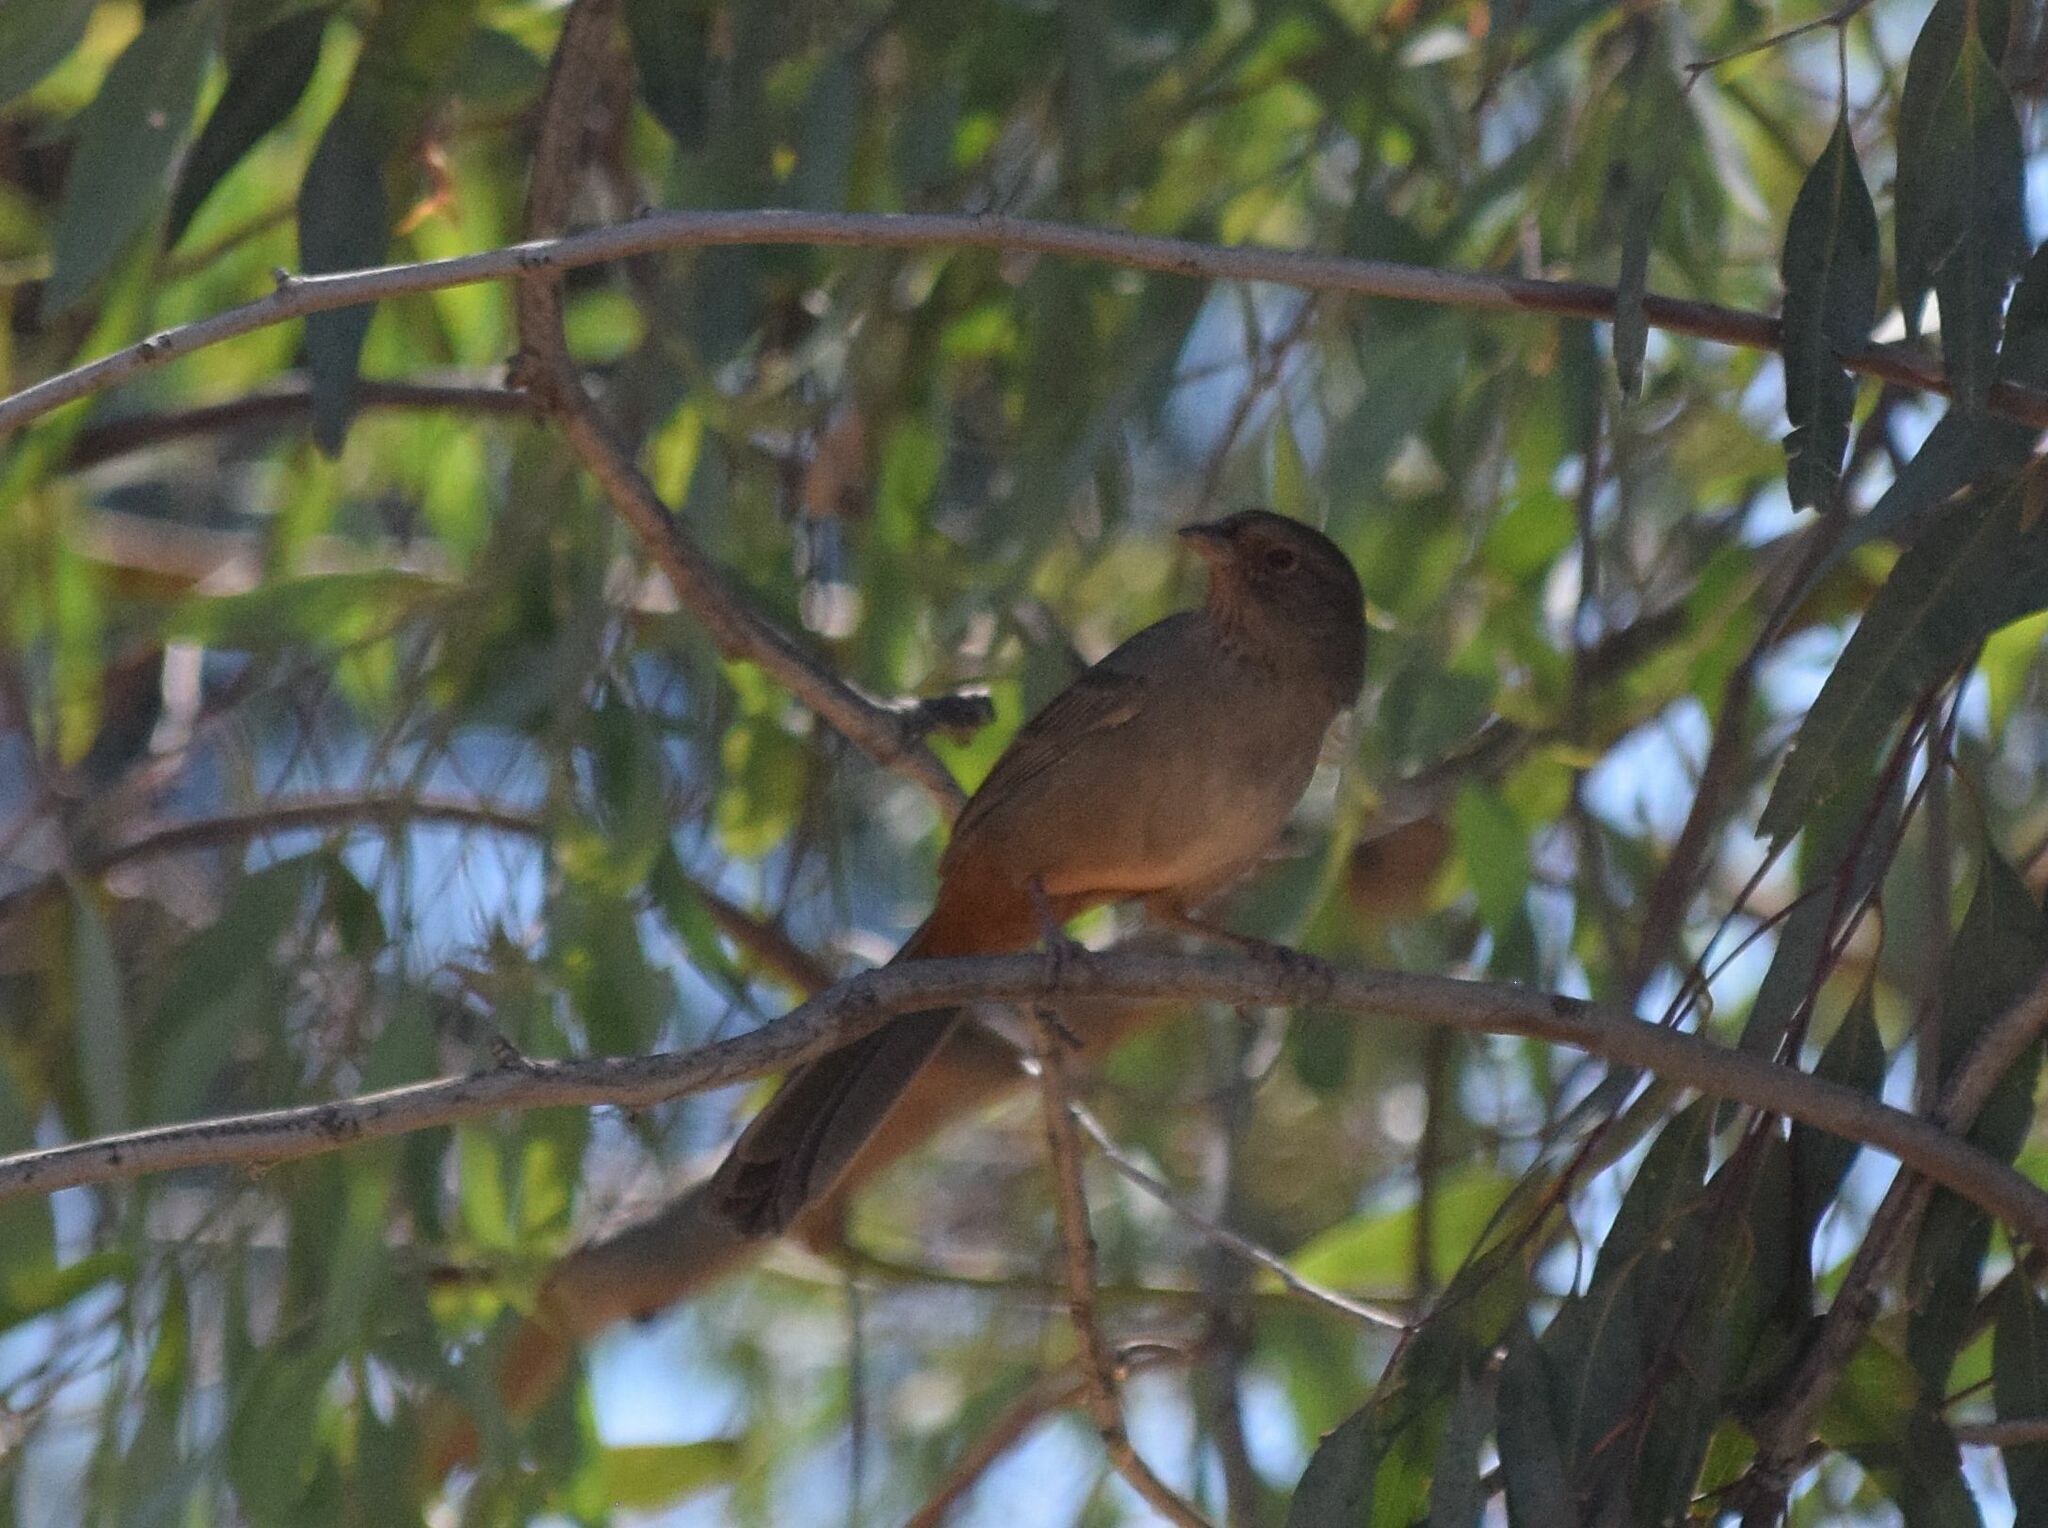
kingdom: Animalia
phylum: Chordata
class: Aves
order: Passeriformes
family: Passerellidae
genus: Melozone
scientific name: Melozone crissalis
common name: California towhee
